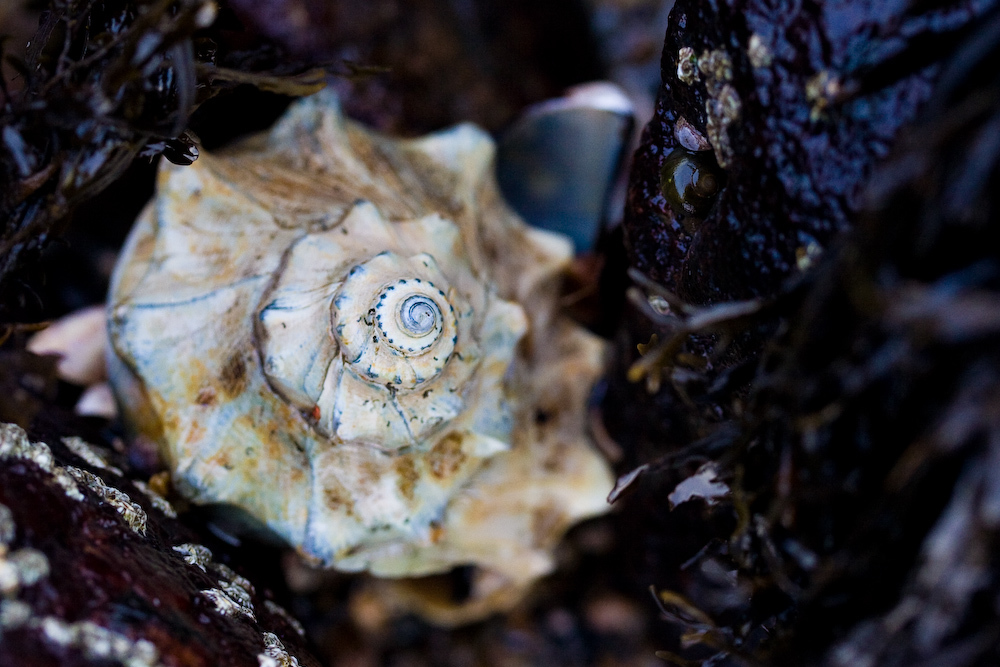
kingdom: Animalia
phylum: Mollusca
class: Gastropoda
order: Neogastropoda
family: Busyconidae
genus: Busycon
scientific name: Busycon carica
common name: Knobbed whelk
